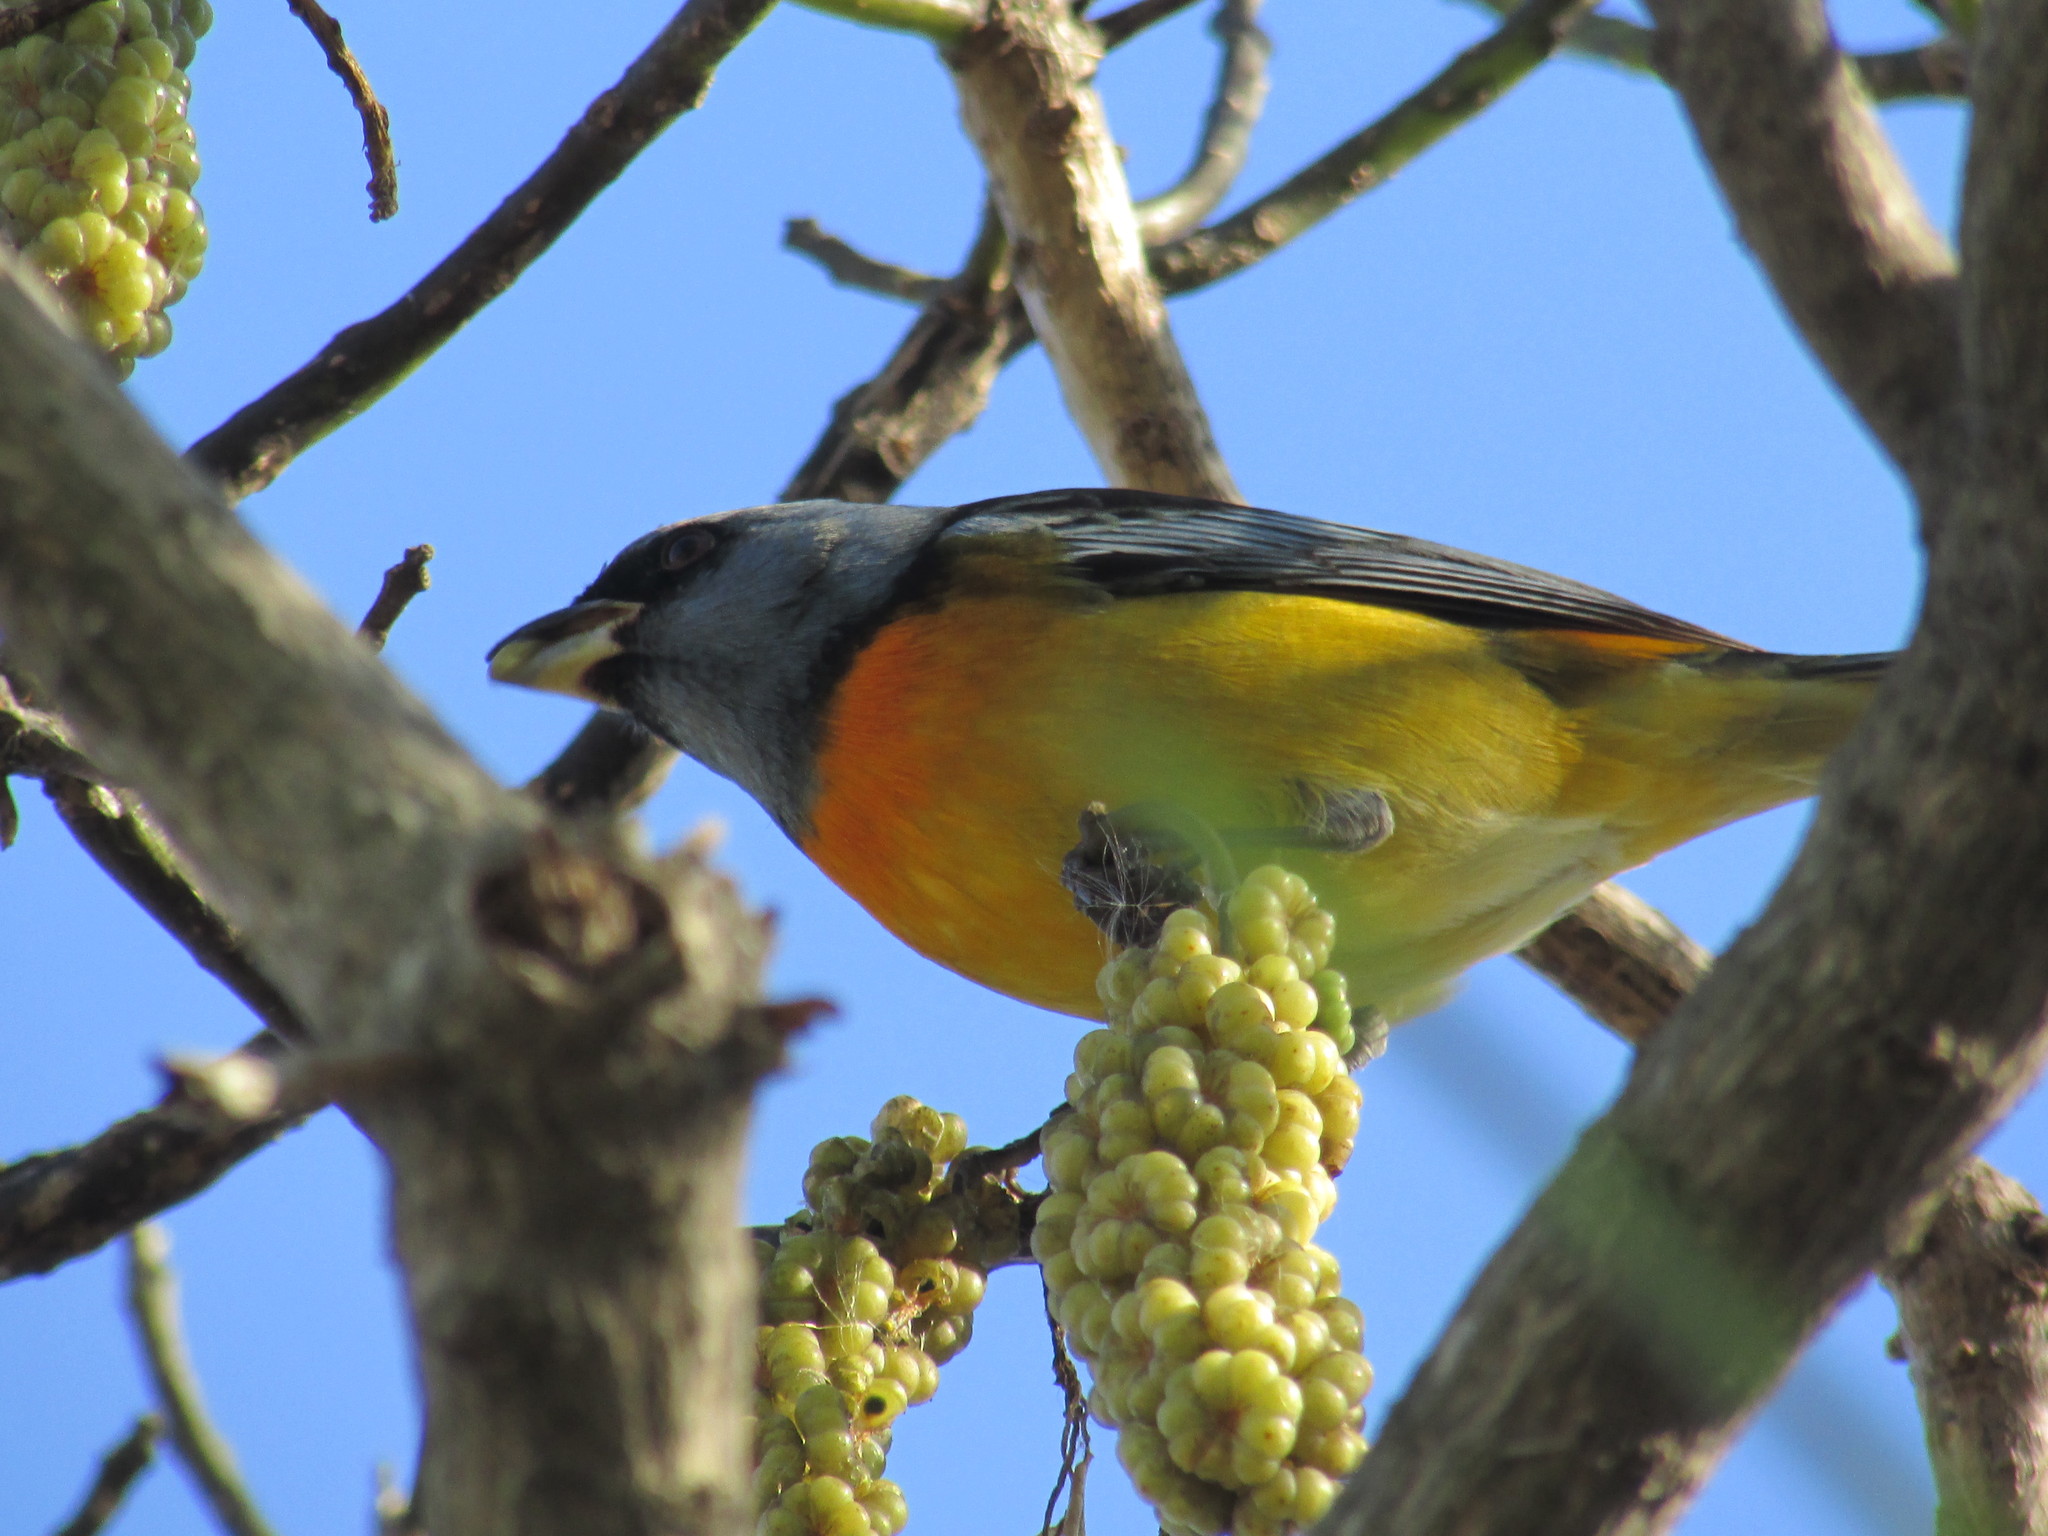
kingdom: Animalia
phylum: Chordata
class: Aves
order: Passeriformes
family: Thraupidae
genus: Rauenia
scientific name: Rauenia bonariensis
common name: Blue-and-yellow tanager
